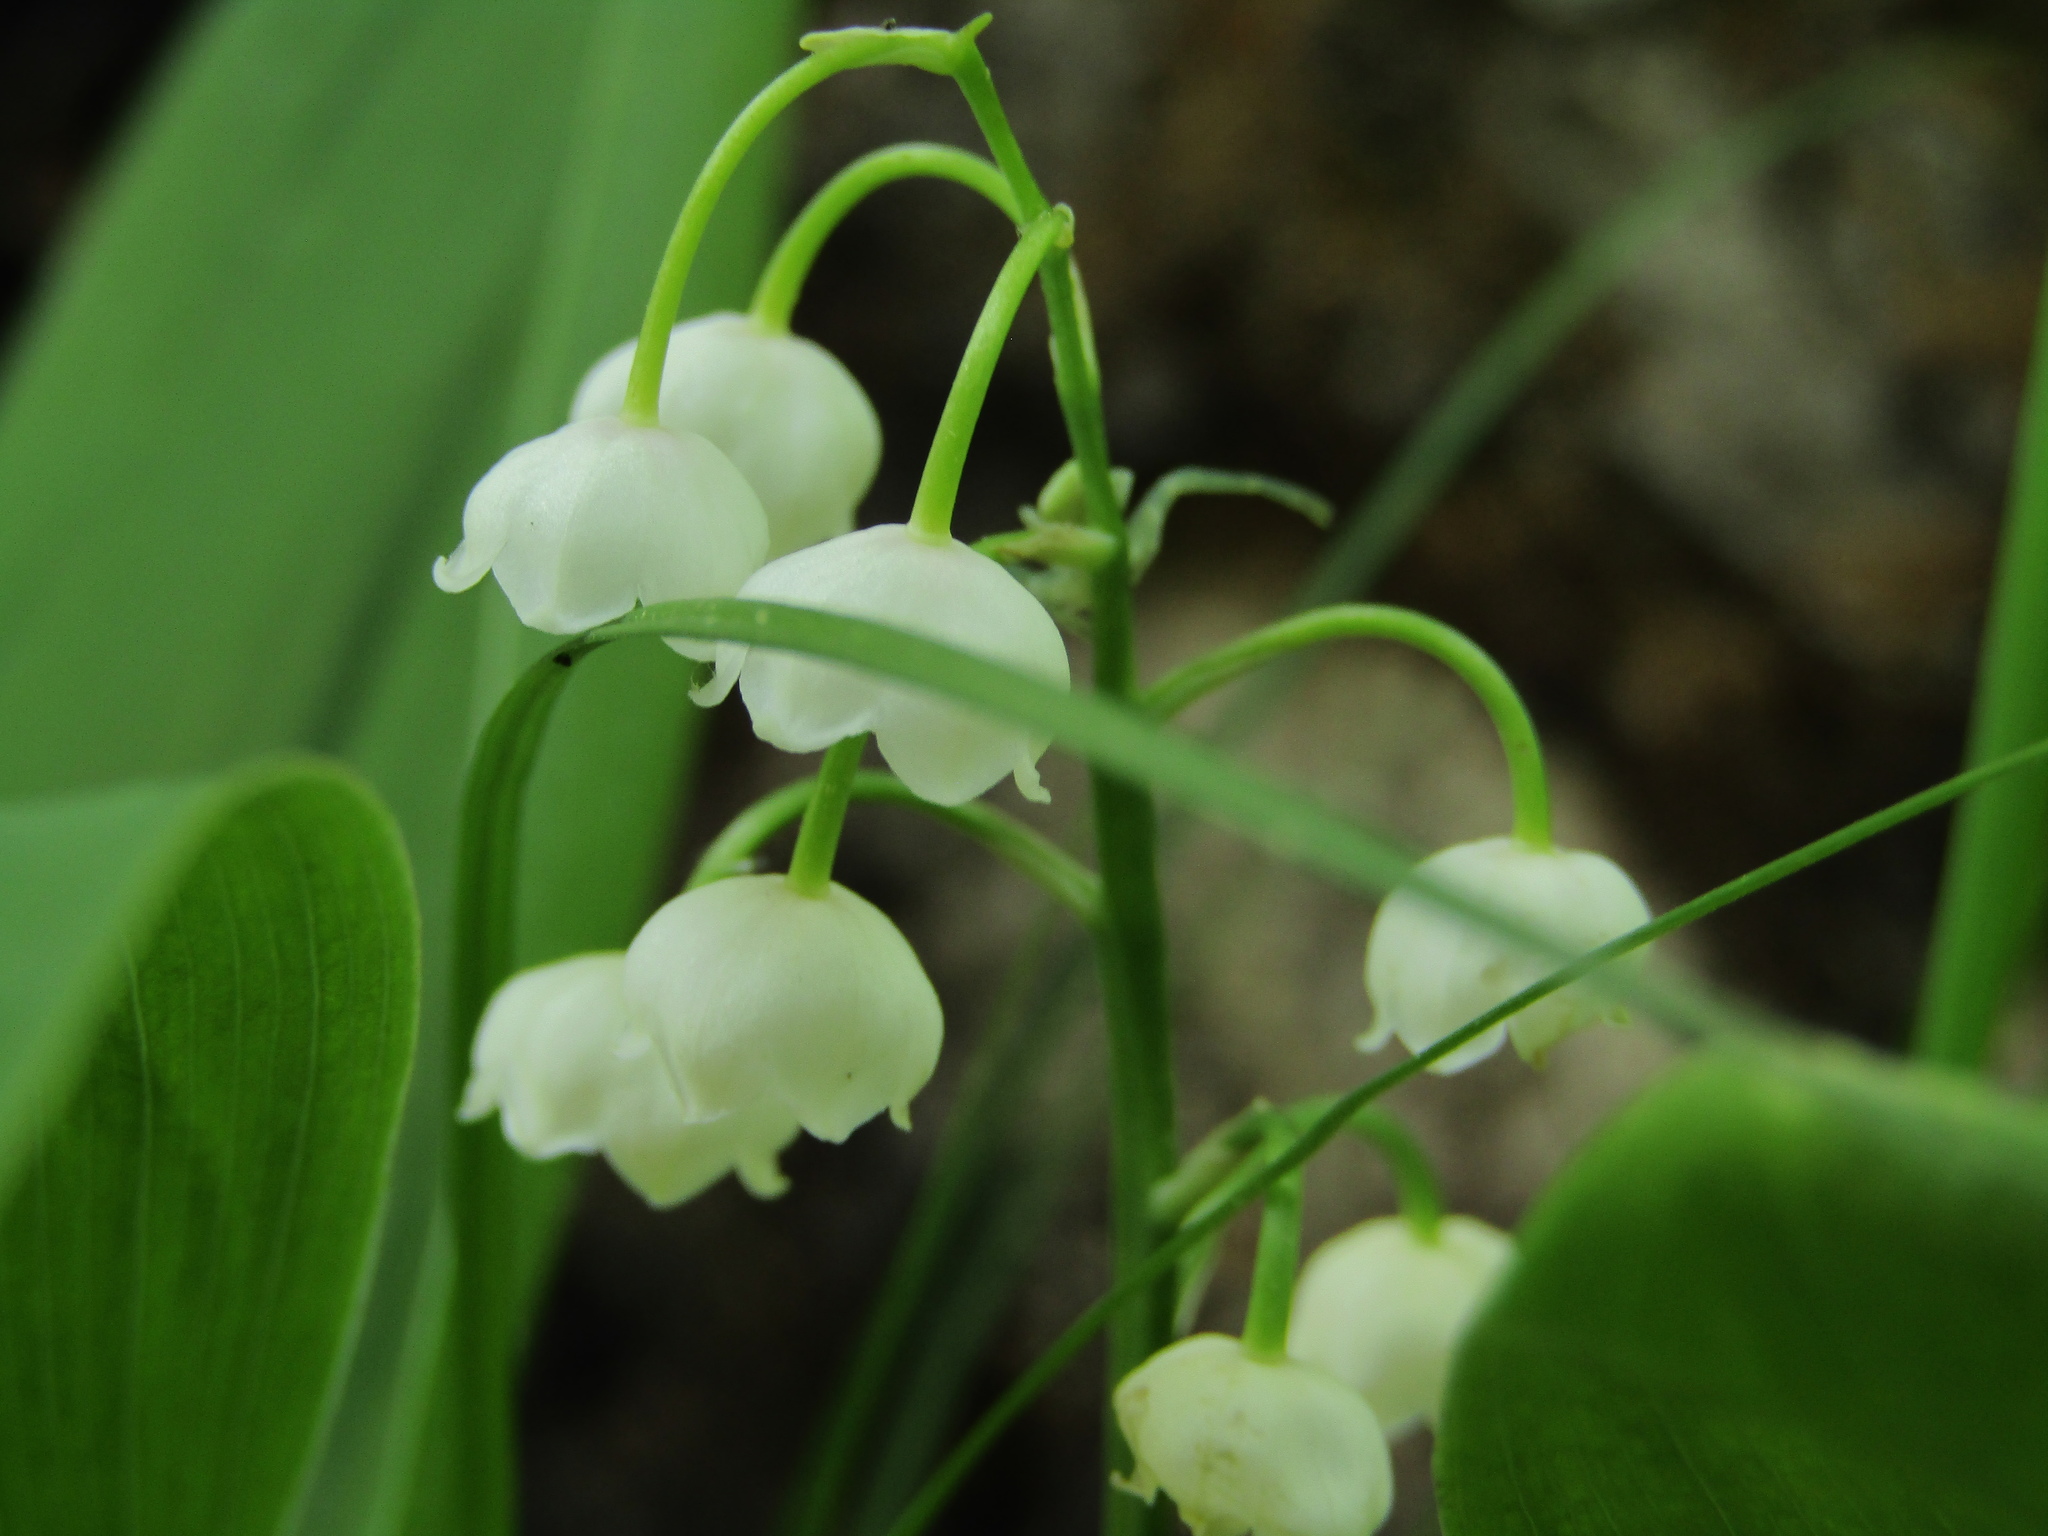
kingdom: Plantae
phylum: Tracheophyta
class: Liliopsida
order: Asparagales
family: Asparagaceae
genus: Convallaria
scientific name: Convallaria majalis
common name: Lily-of-the-valley
